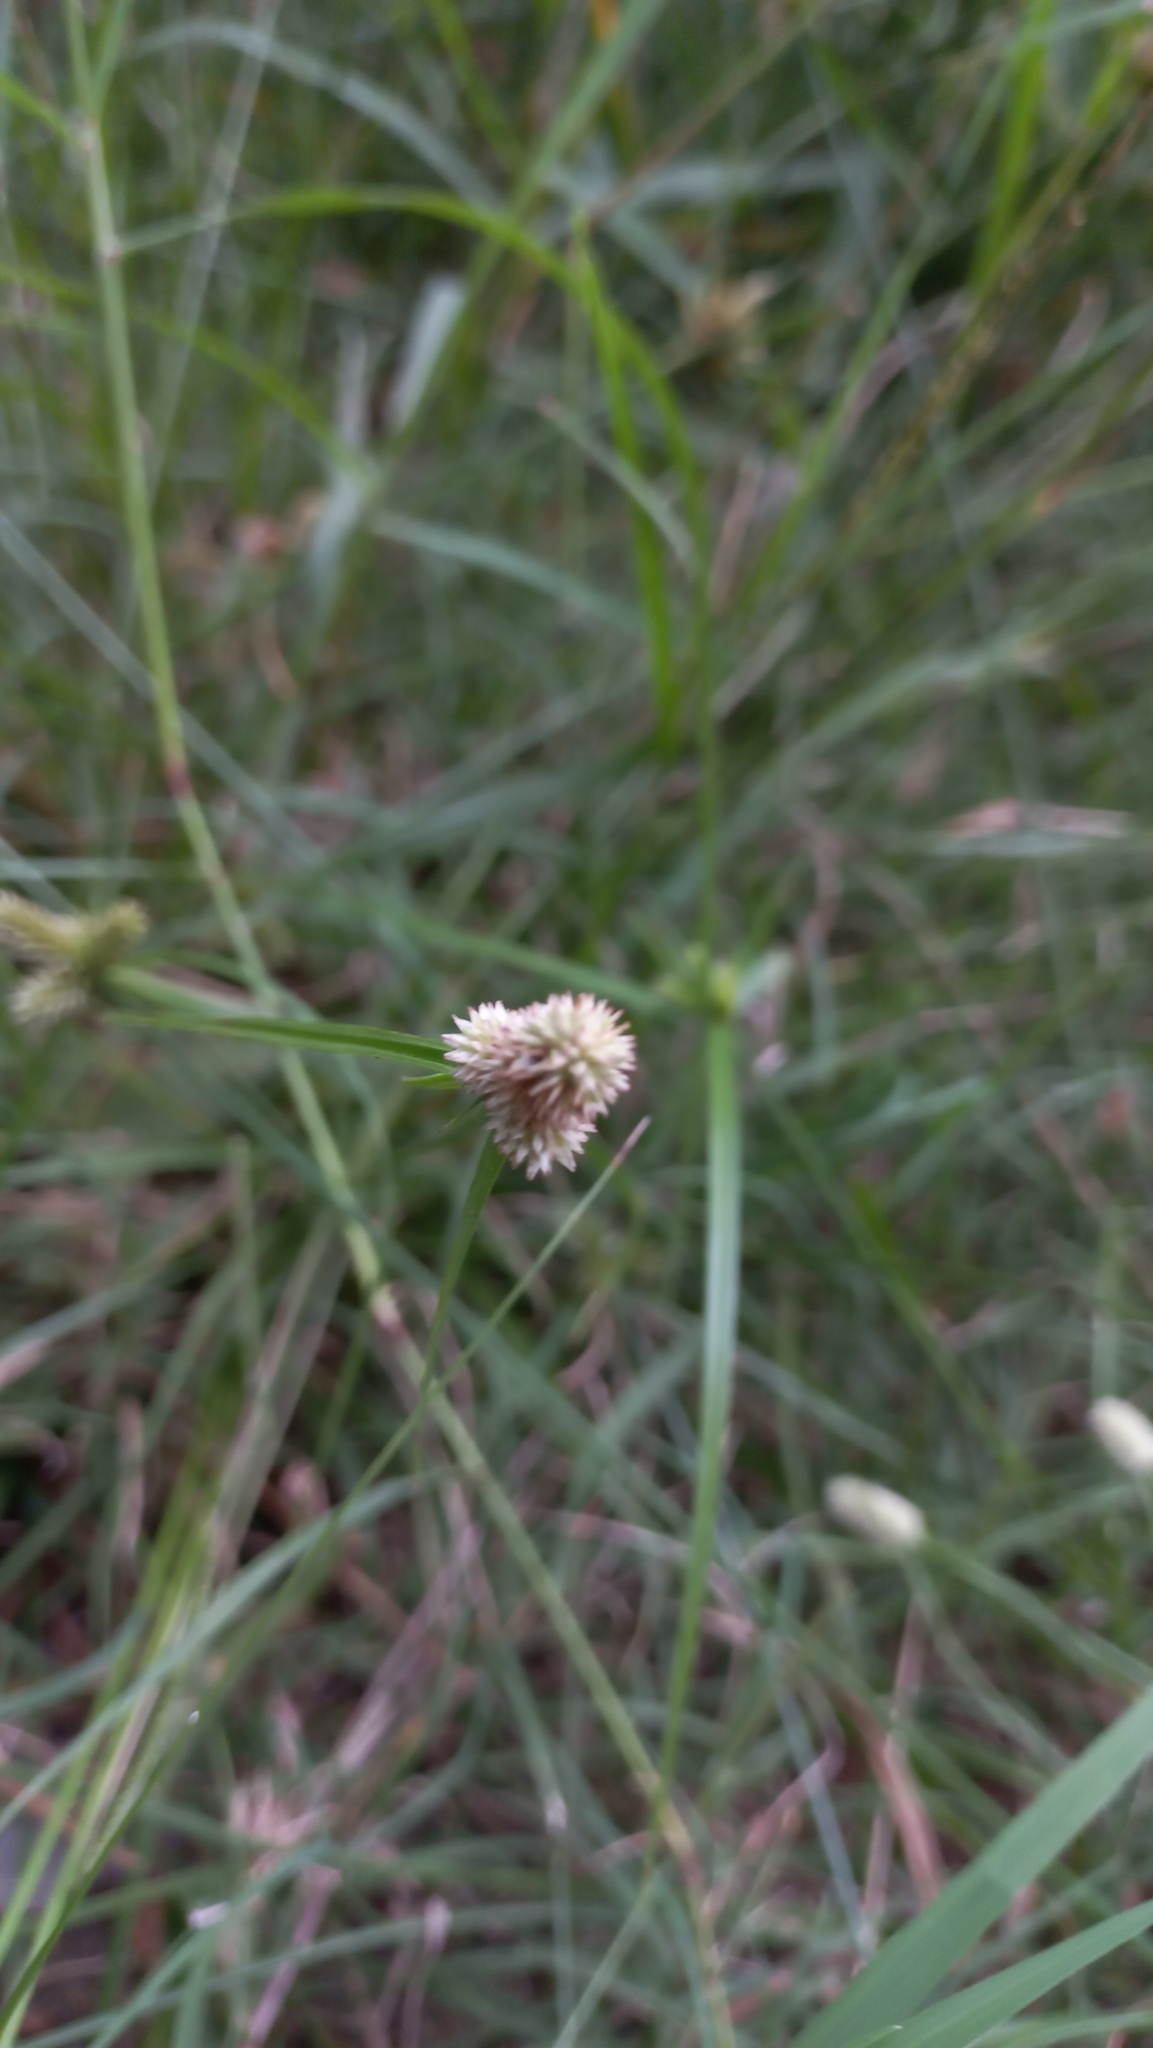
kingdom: Plantae
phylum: Tracheophyta
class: Liliopsida
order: Poales
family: Cyperaceae
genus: Cyperus
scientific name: Cyperus sesquiflorus
